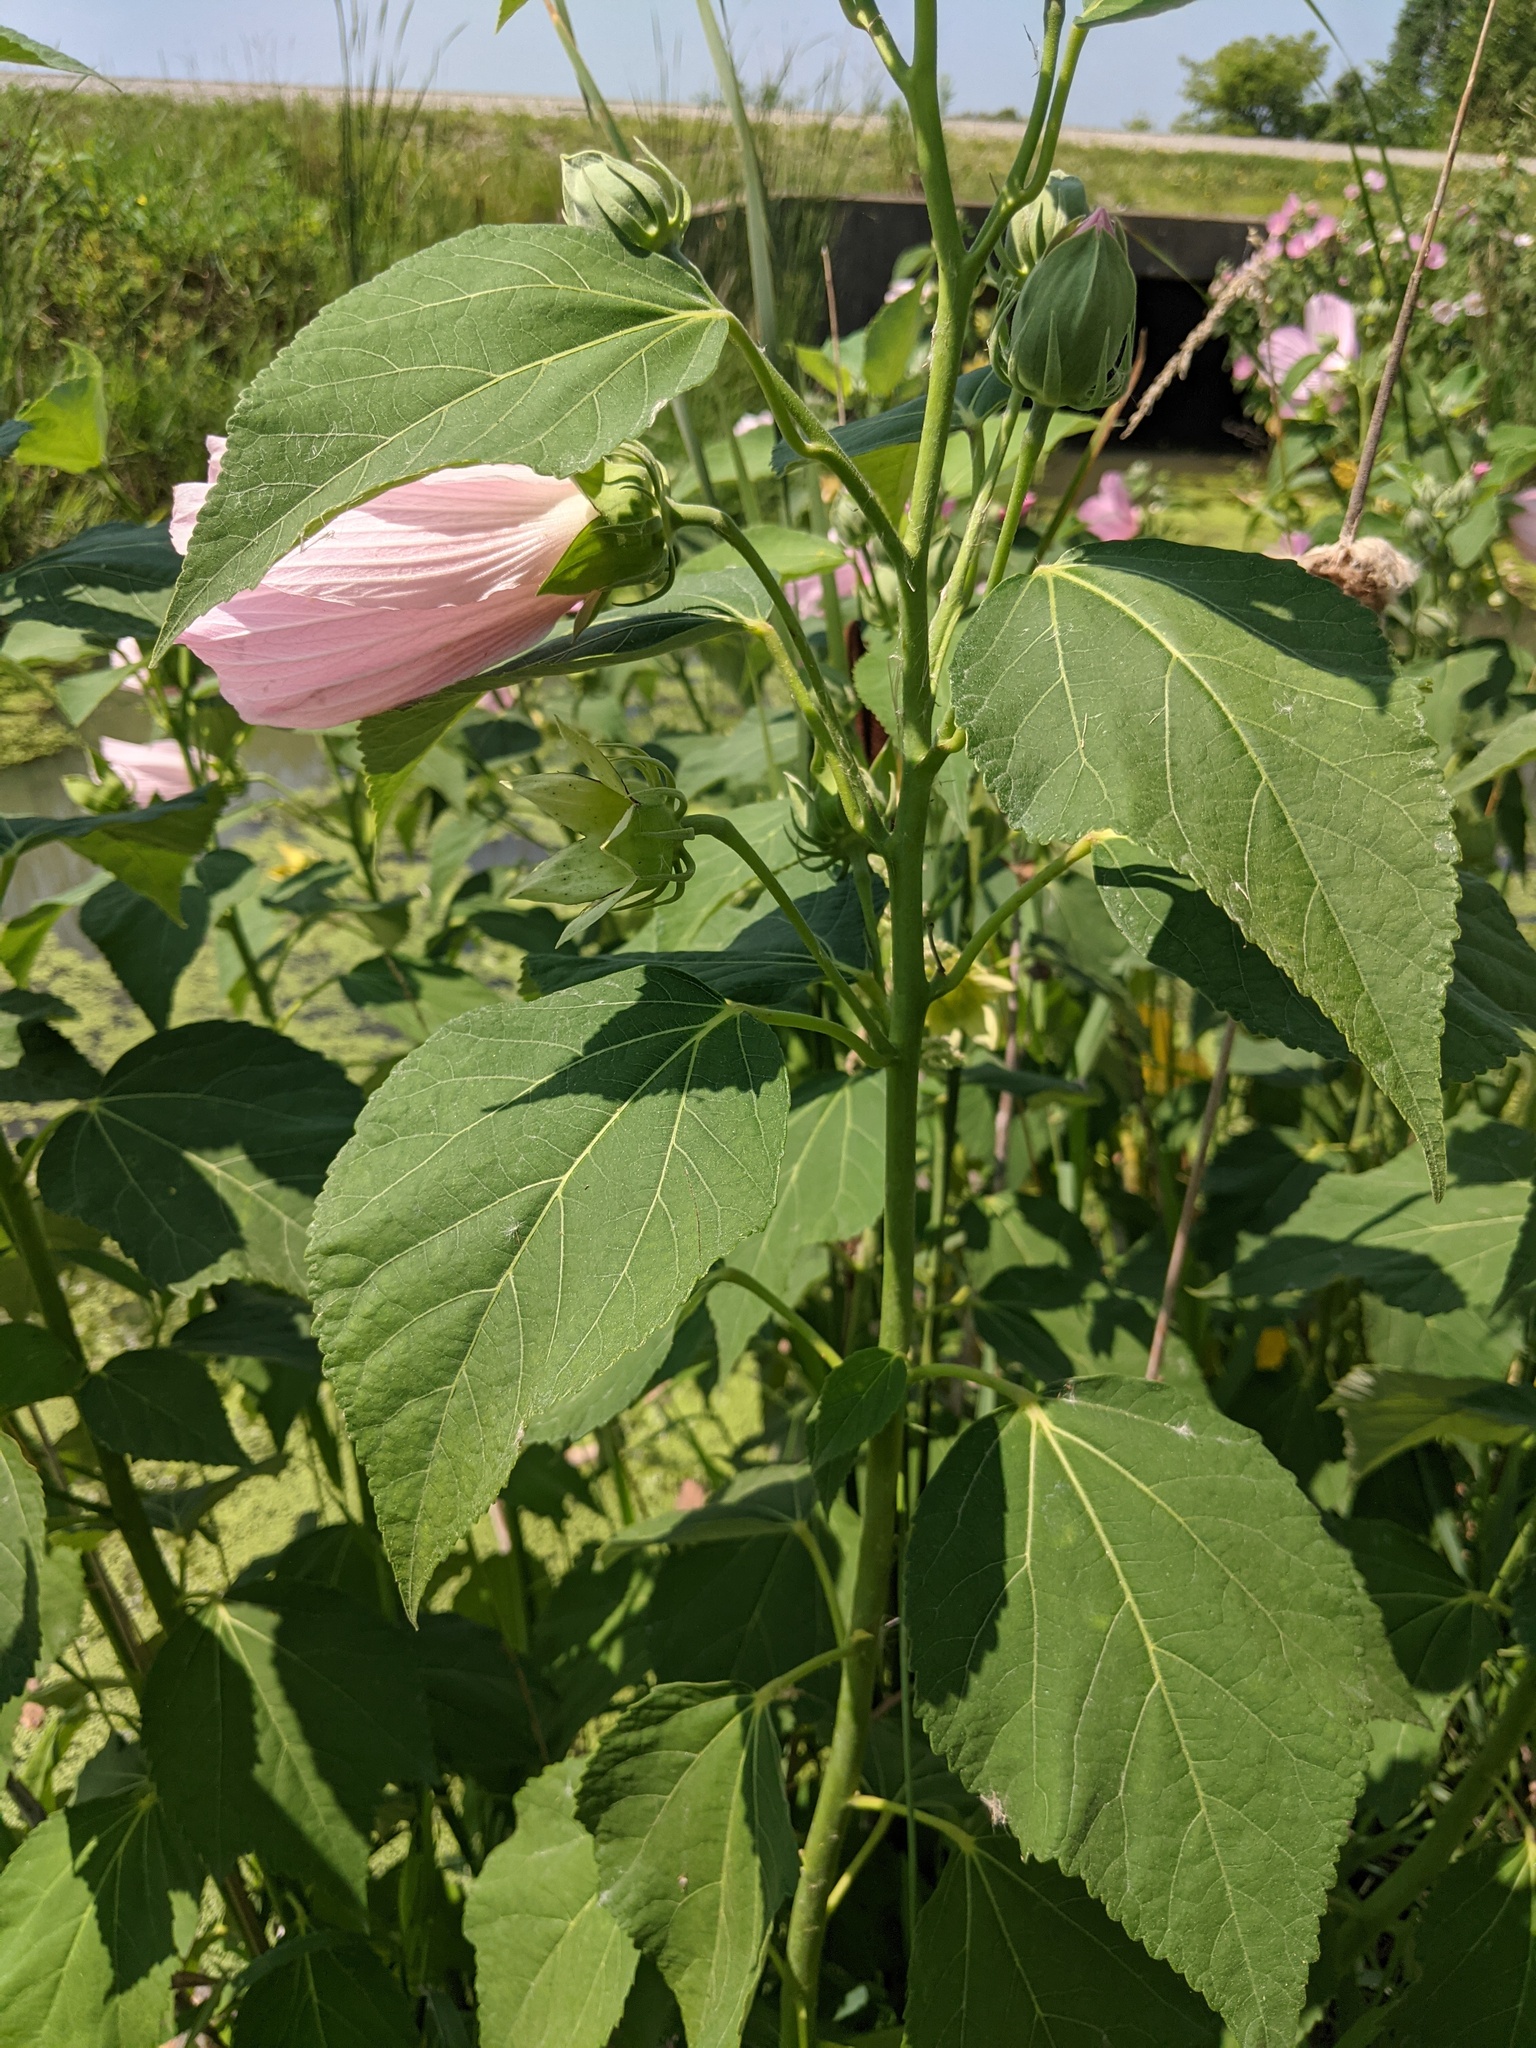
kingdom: Plantae
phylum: Tracheophyta
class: Magnoliopsida
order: Malvales
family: Malvaceae
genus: Hibiscus
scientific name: Hibiscus moscheutos
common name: Common rose-mallow
